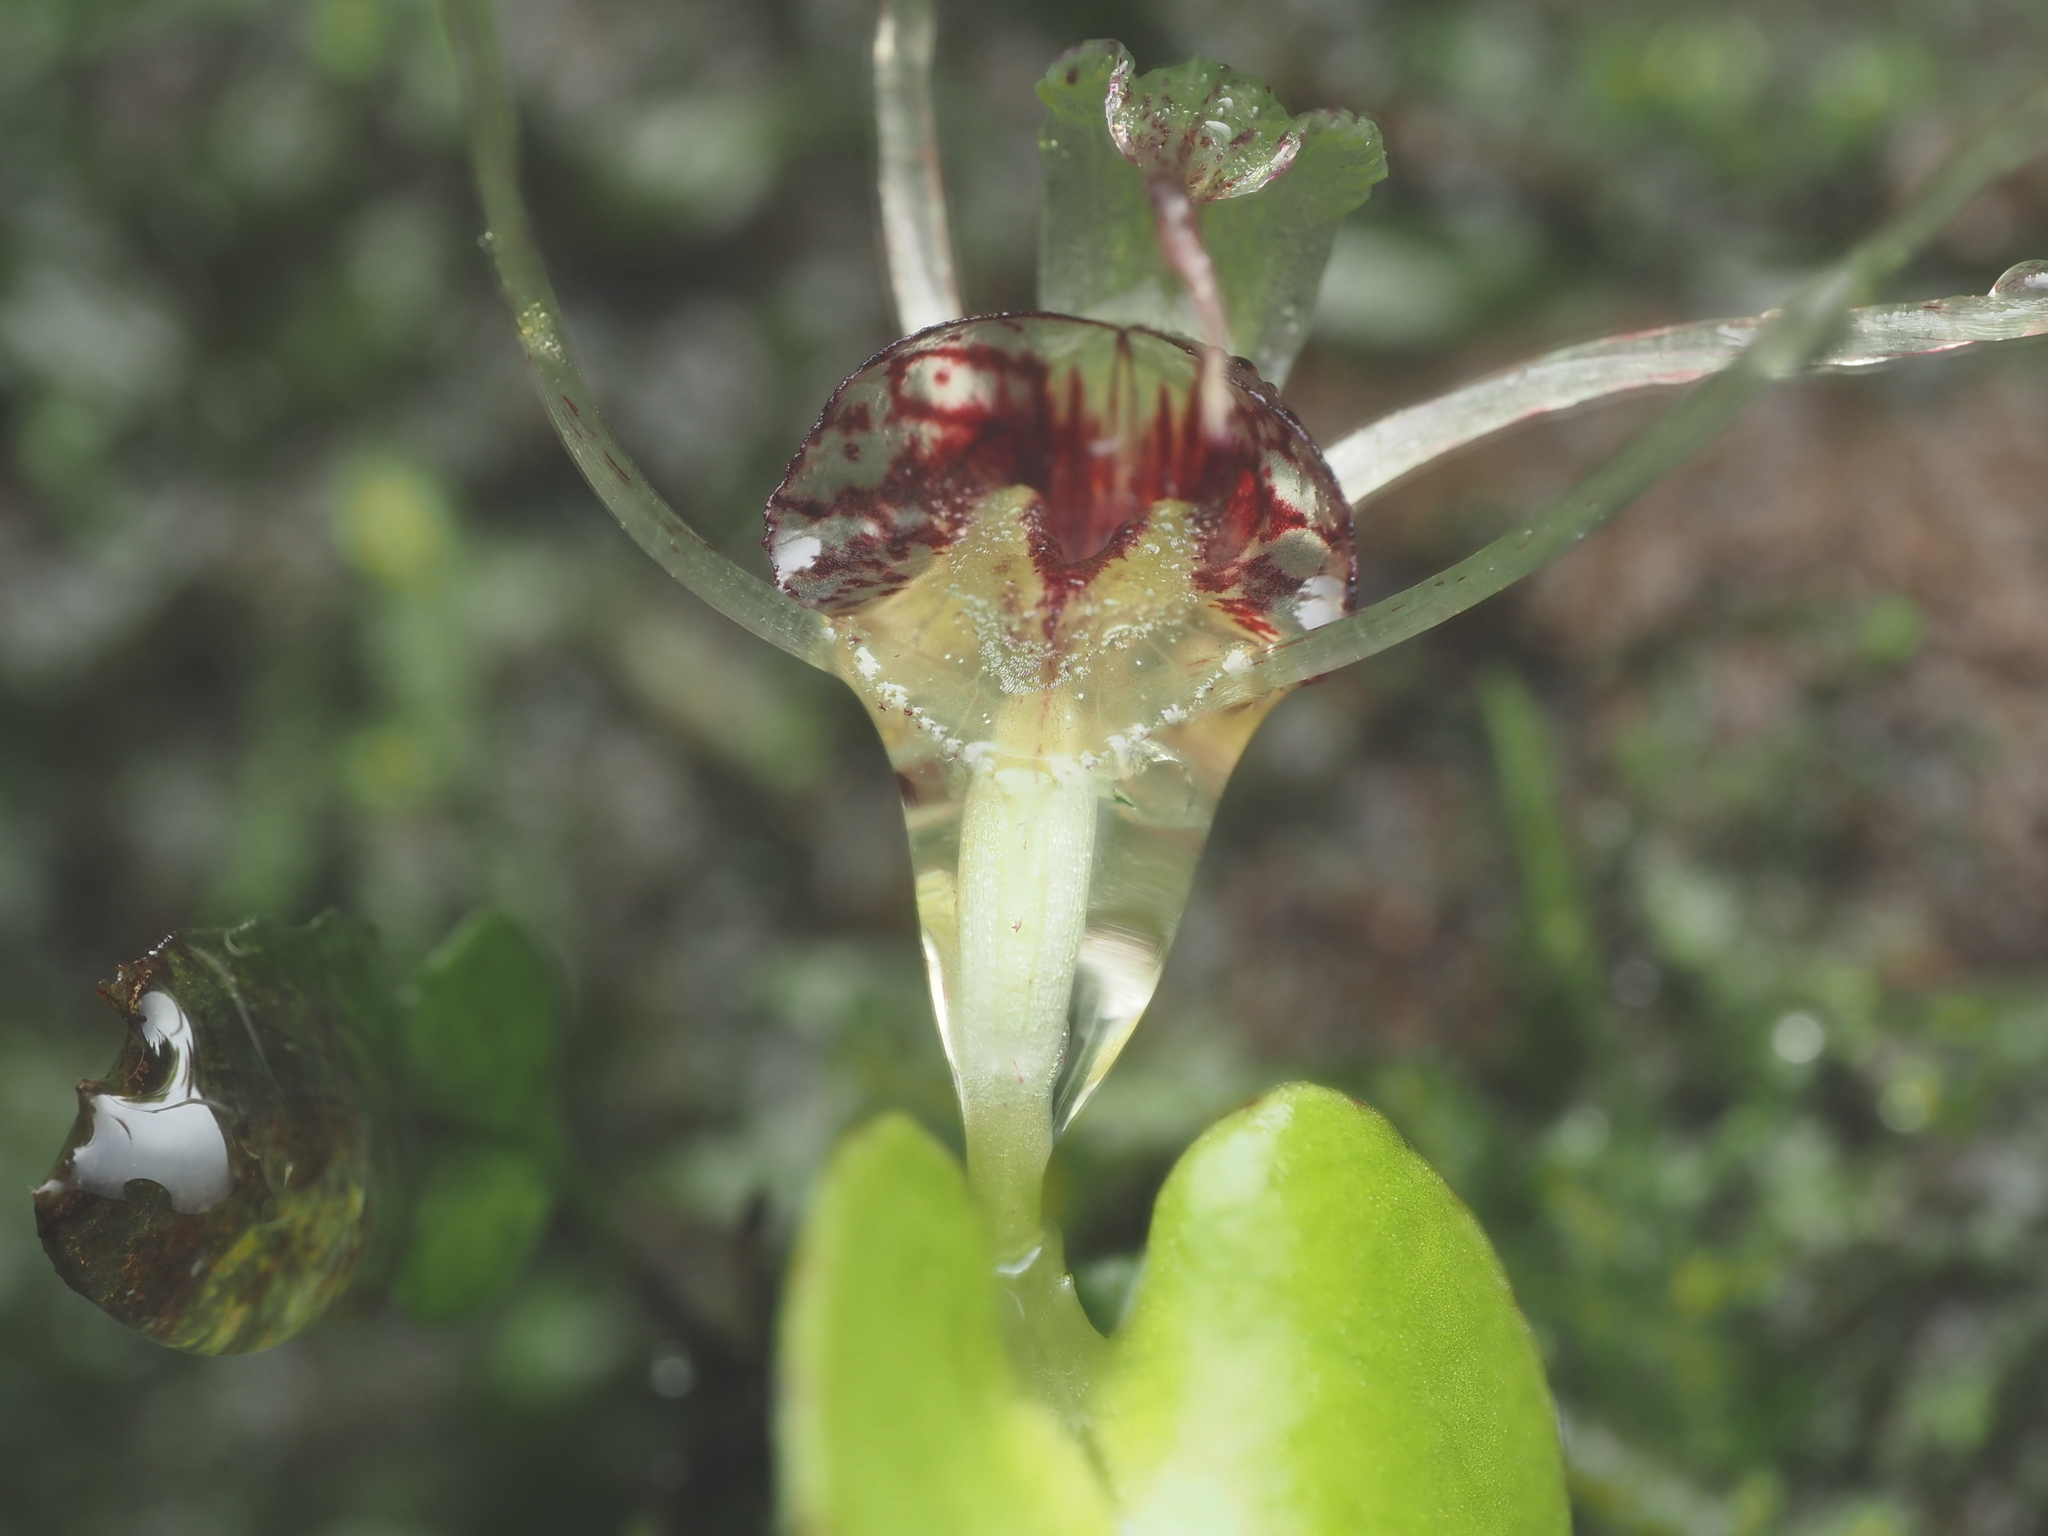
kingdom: Plantae
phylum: Tracheophyta
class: Liliopsida
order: Asparagales
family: Orchidaceae
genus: Corybas
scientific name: Corybas hatchii
